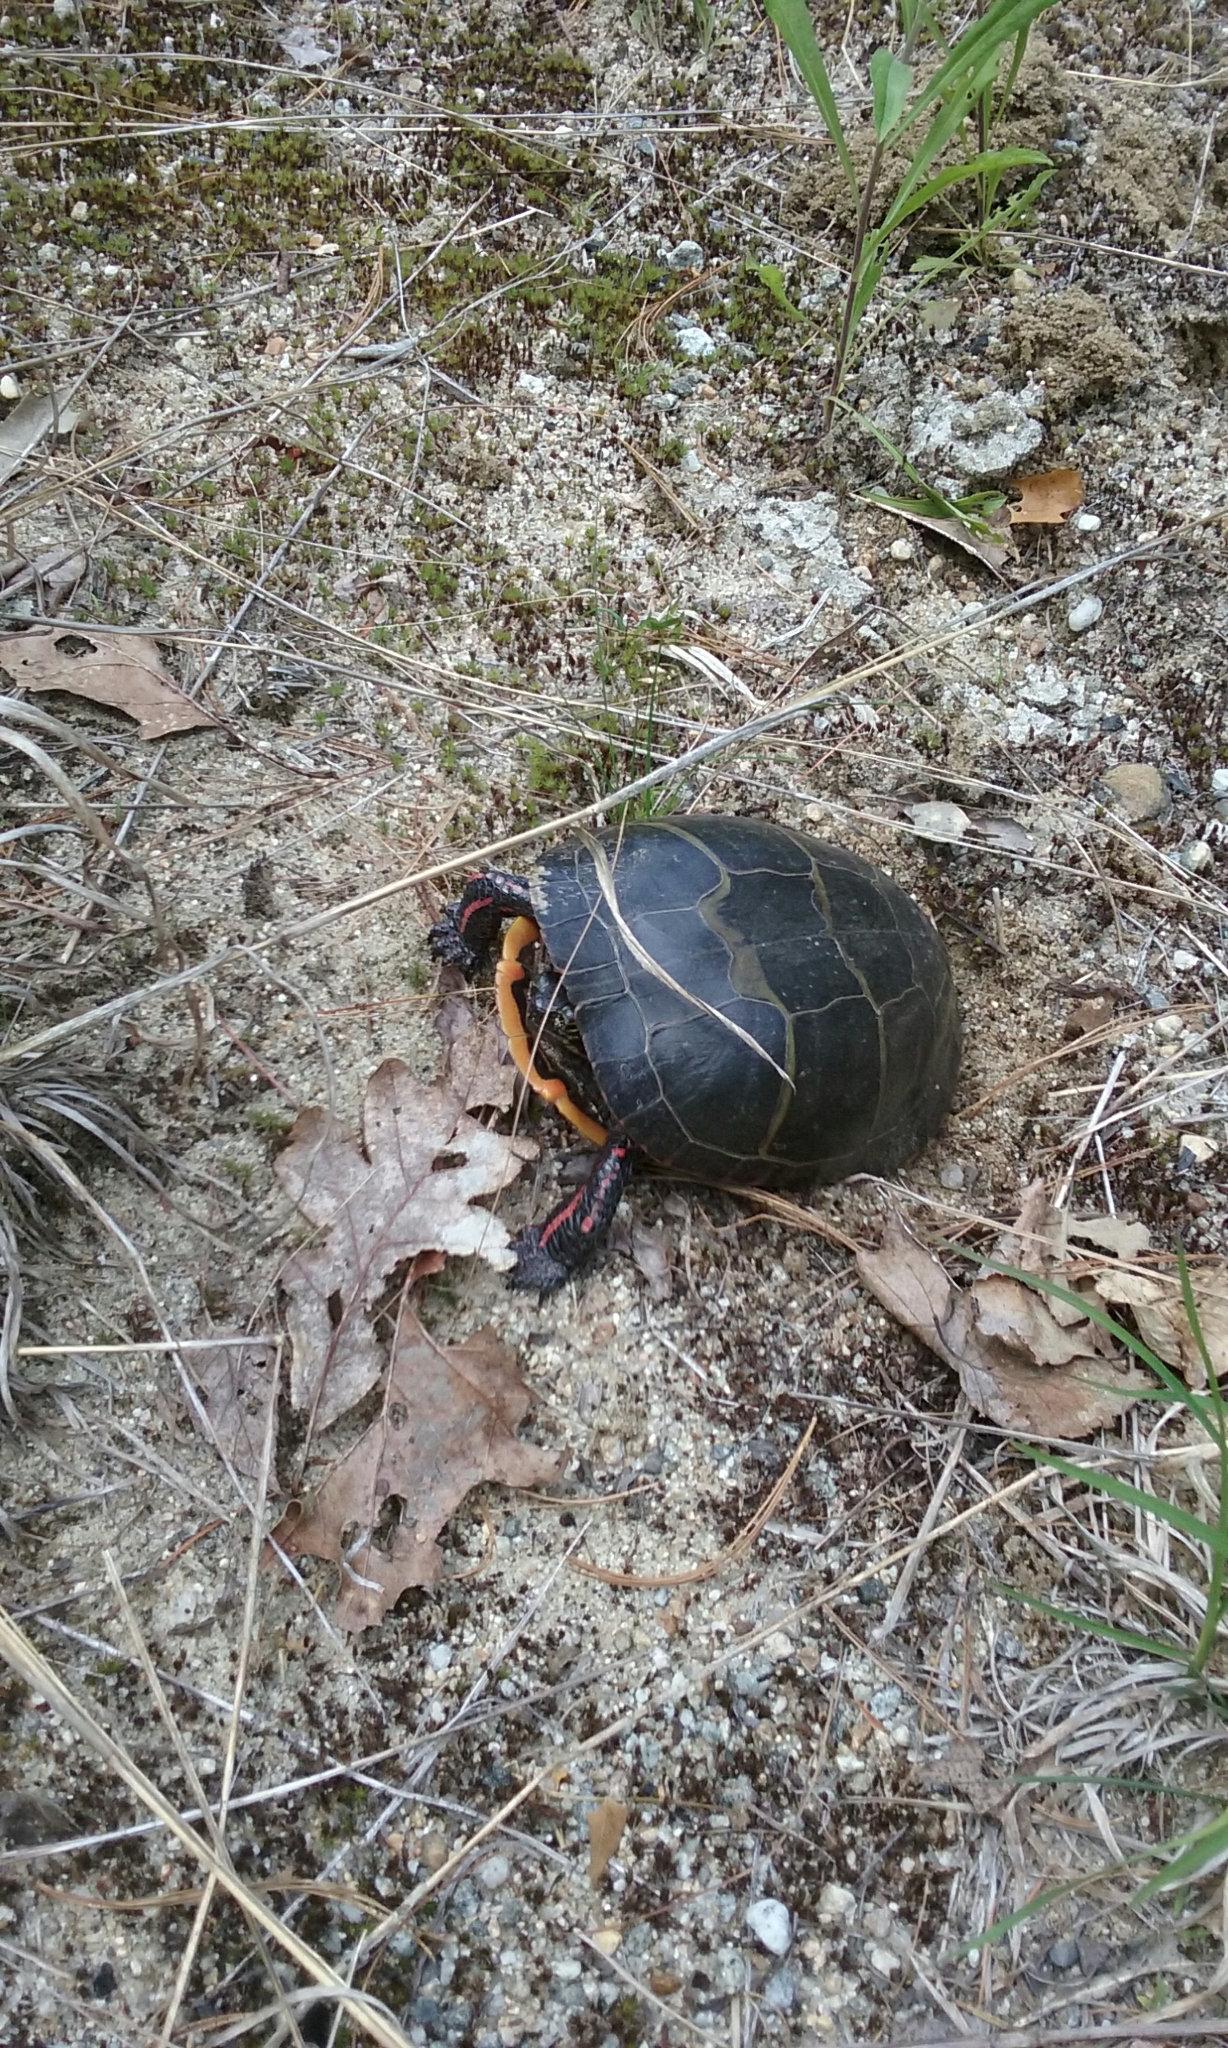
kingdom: Animalia
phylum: Chordata
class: Testudines
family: Emydidae
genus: Chrysemys
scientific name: Chrysemys picta
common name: Painted turtle
